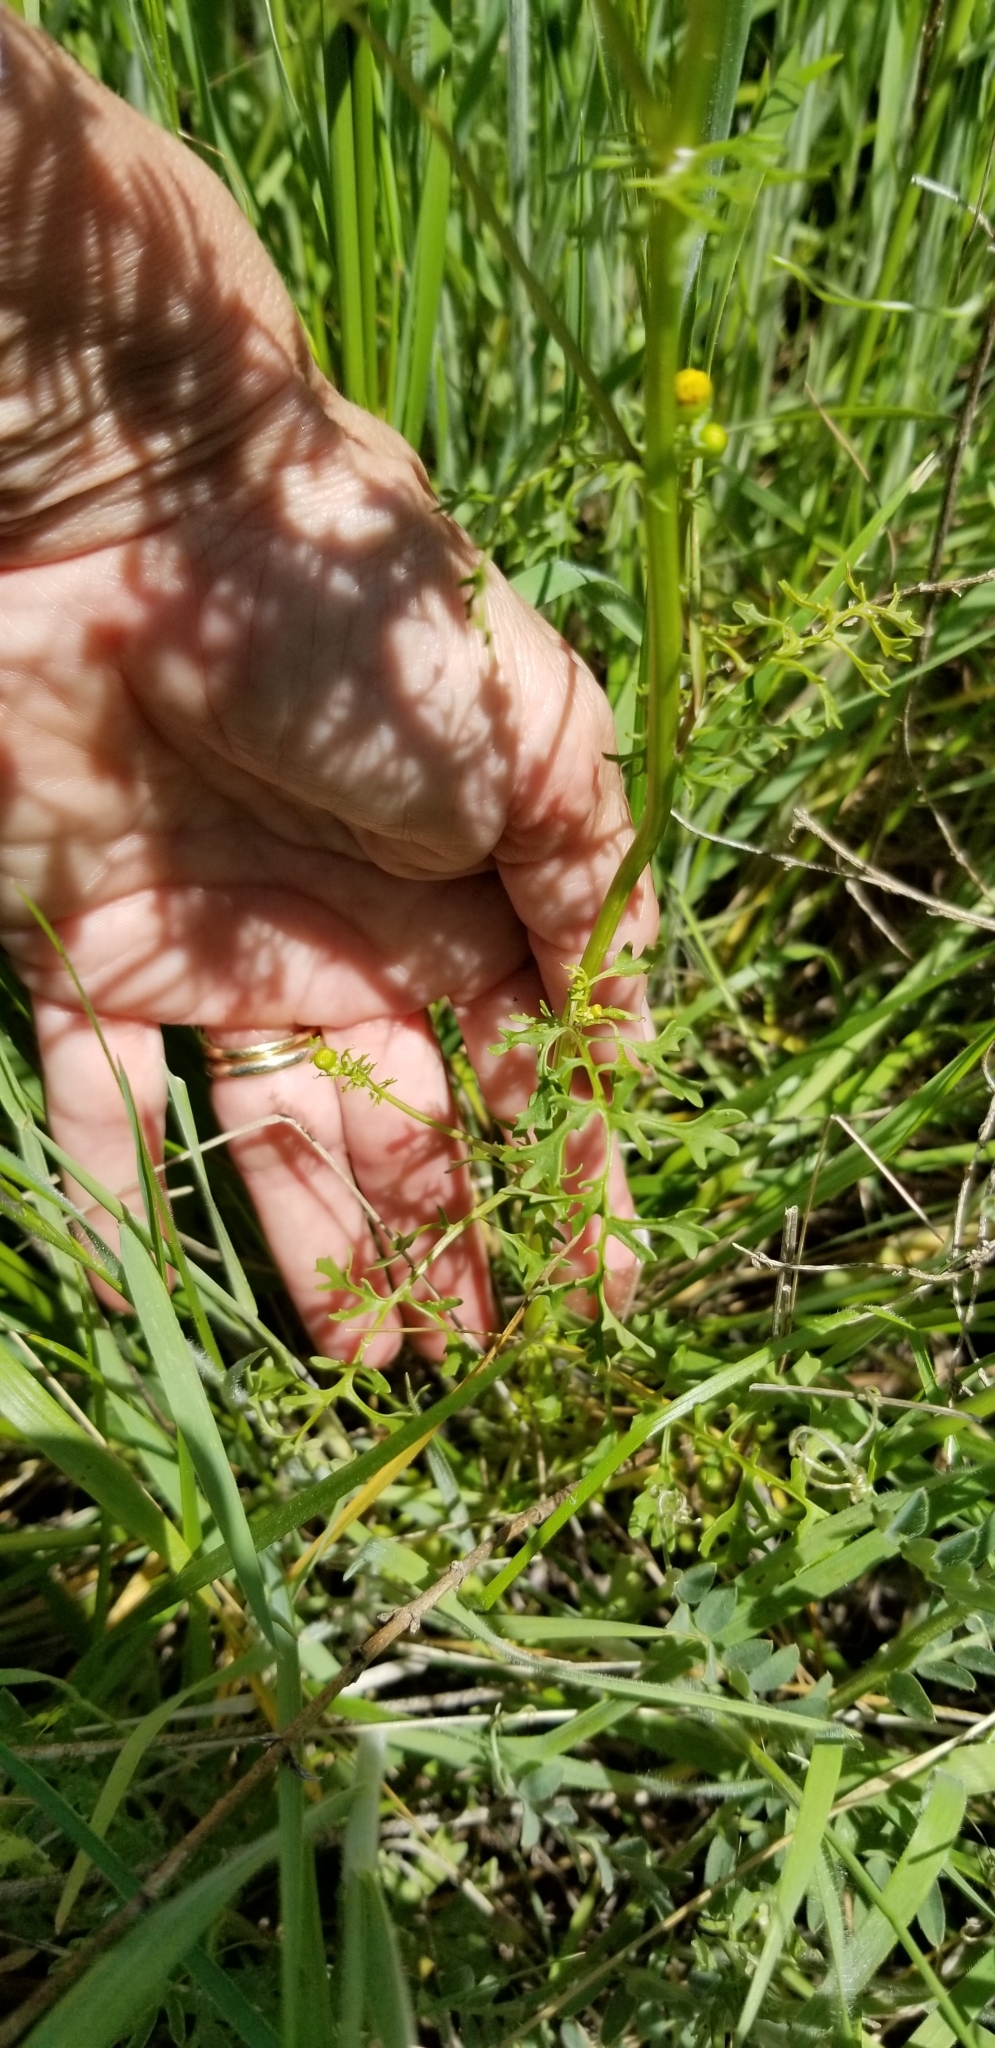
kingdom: Plantae
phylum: Tracheophyta
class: Magnoliopsida
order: Asterales
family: Asteraceae
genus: Packera
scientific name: Packera tampicana
